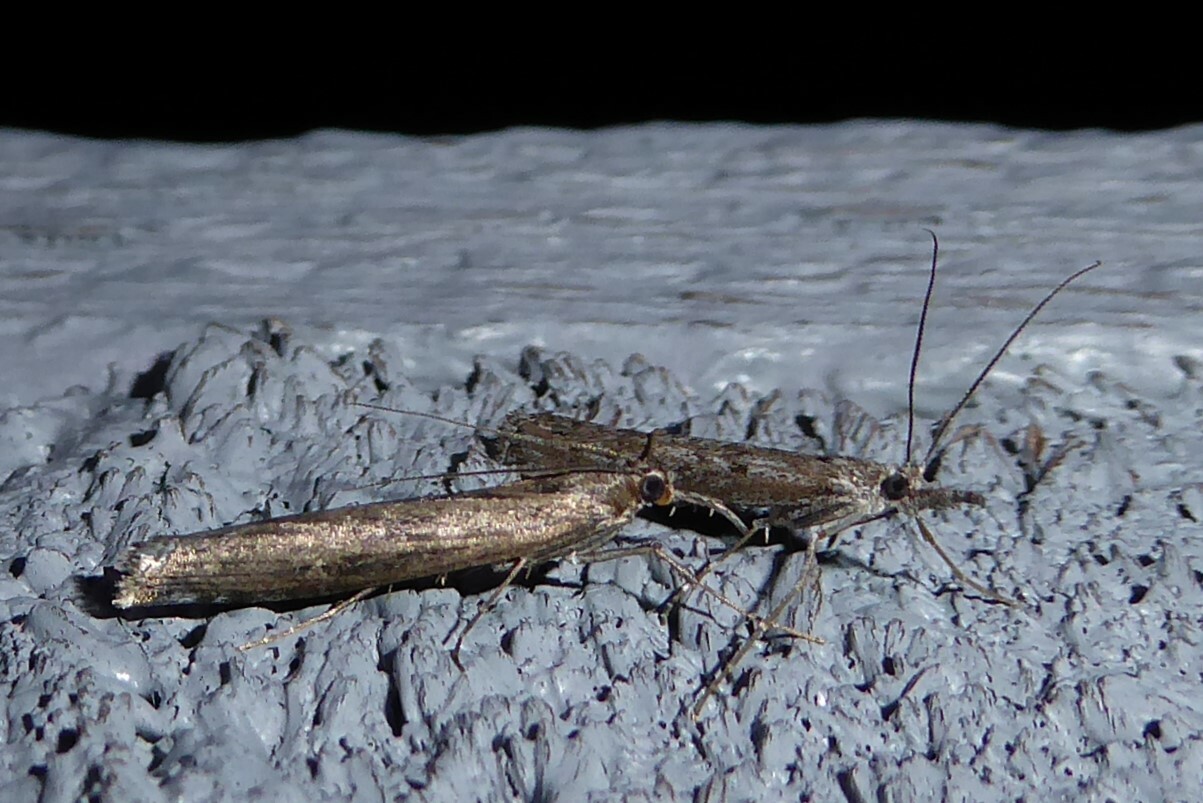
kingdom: Animalia
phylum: Arthropoda
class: Insecta
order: Lepidoptera
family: Crambidae
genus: Orocrambus
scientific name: Orocrambus cyclopicus
